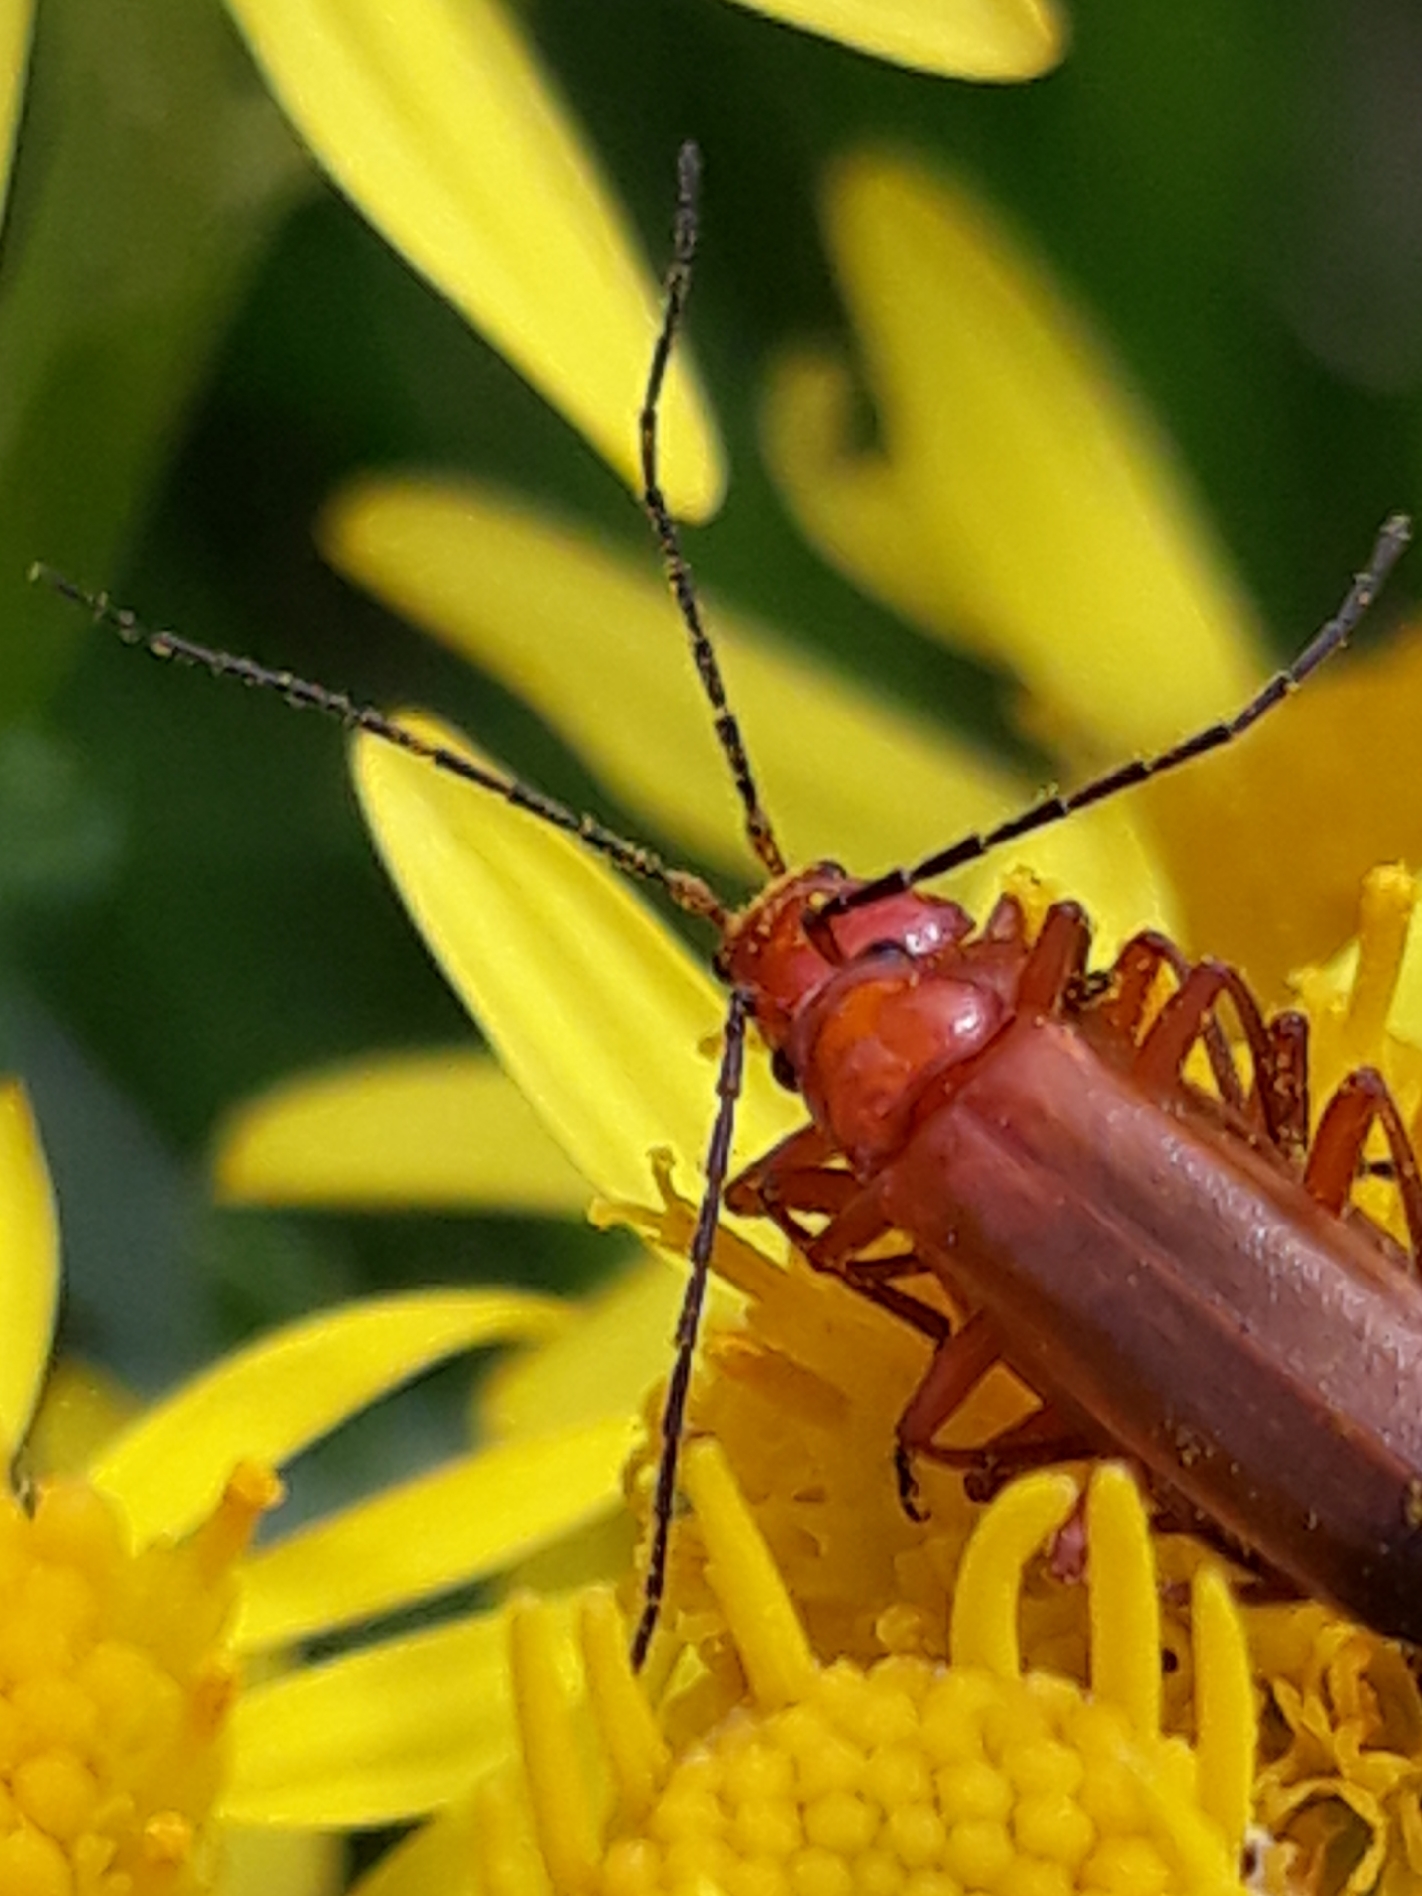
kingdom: Animalia
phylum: Arthropoda
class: Insecta
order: Coleoptera
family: Cantharidae
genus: Rhagonycha
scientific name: Rhagonycha fulva
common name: Common red soldier beetle
